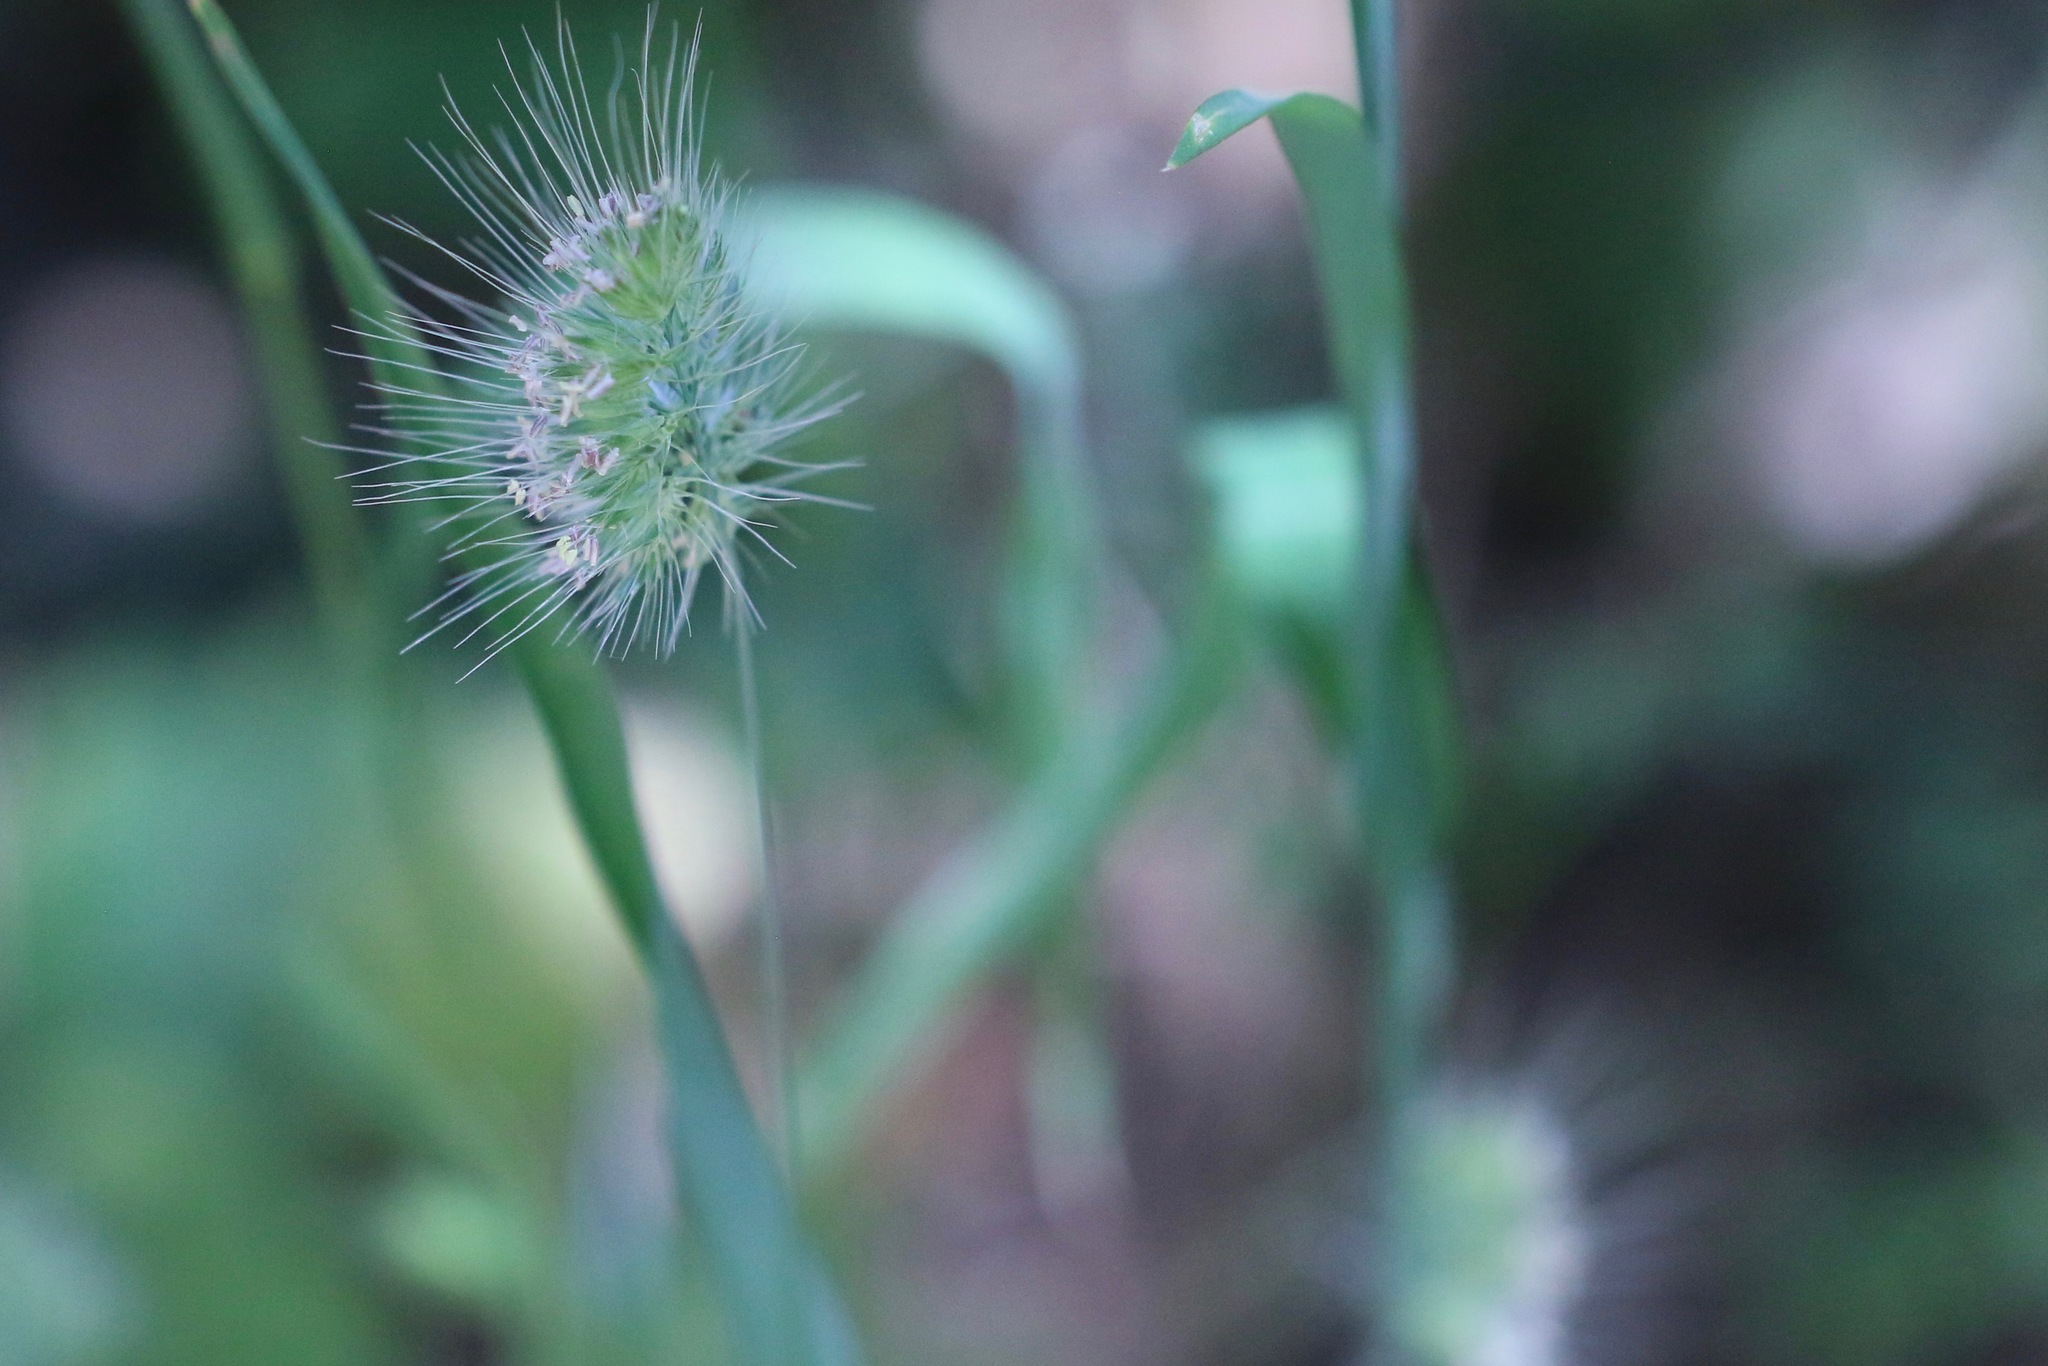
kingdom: Plantae
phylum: Tracheophyta
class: Liliopsida
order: Poales
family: Poaceae
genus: Cynosurus
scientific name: Cynosurus echinatus
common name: Rough dog's-tail
